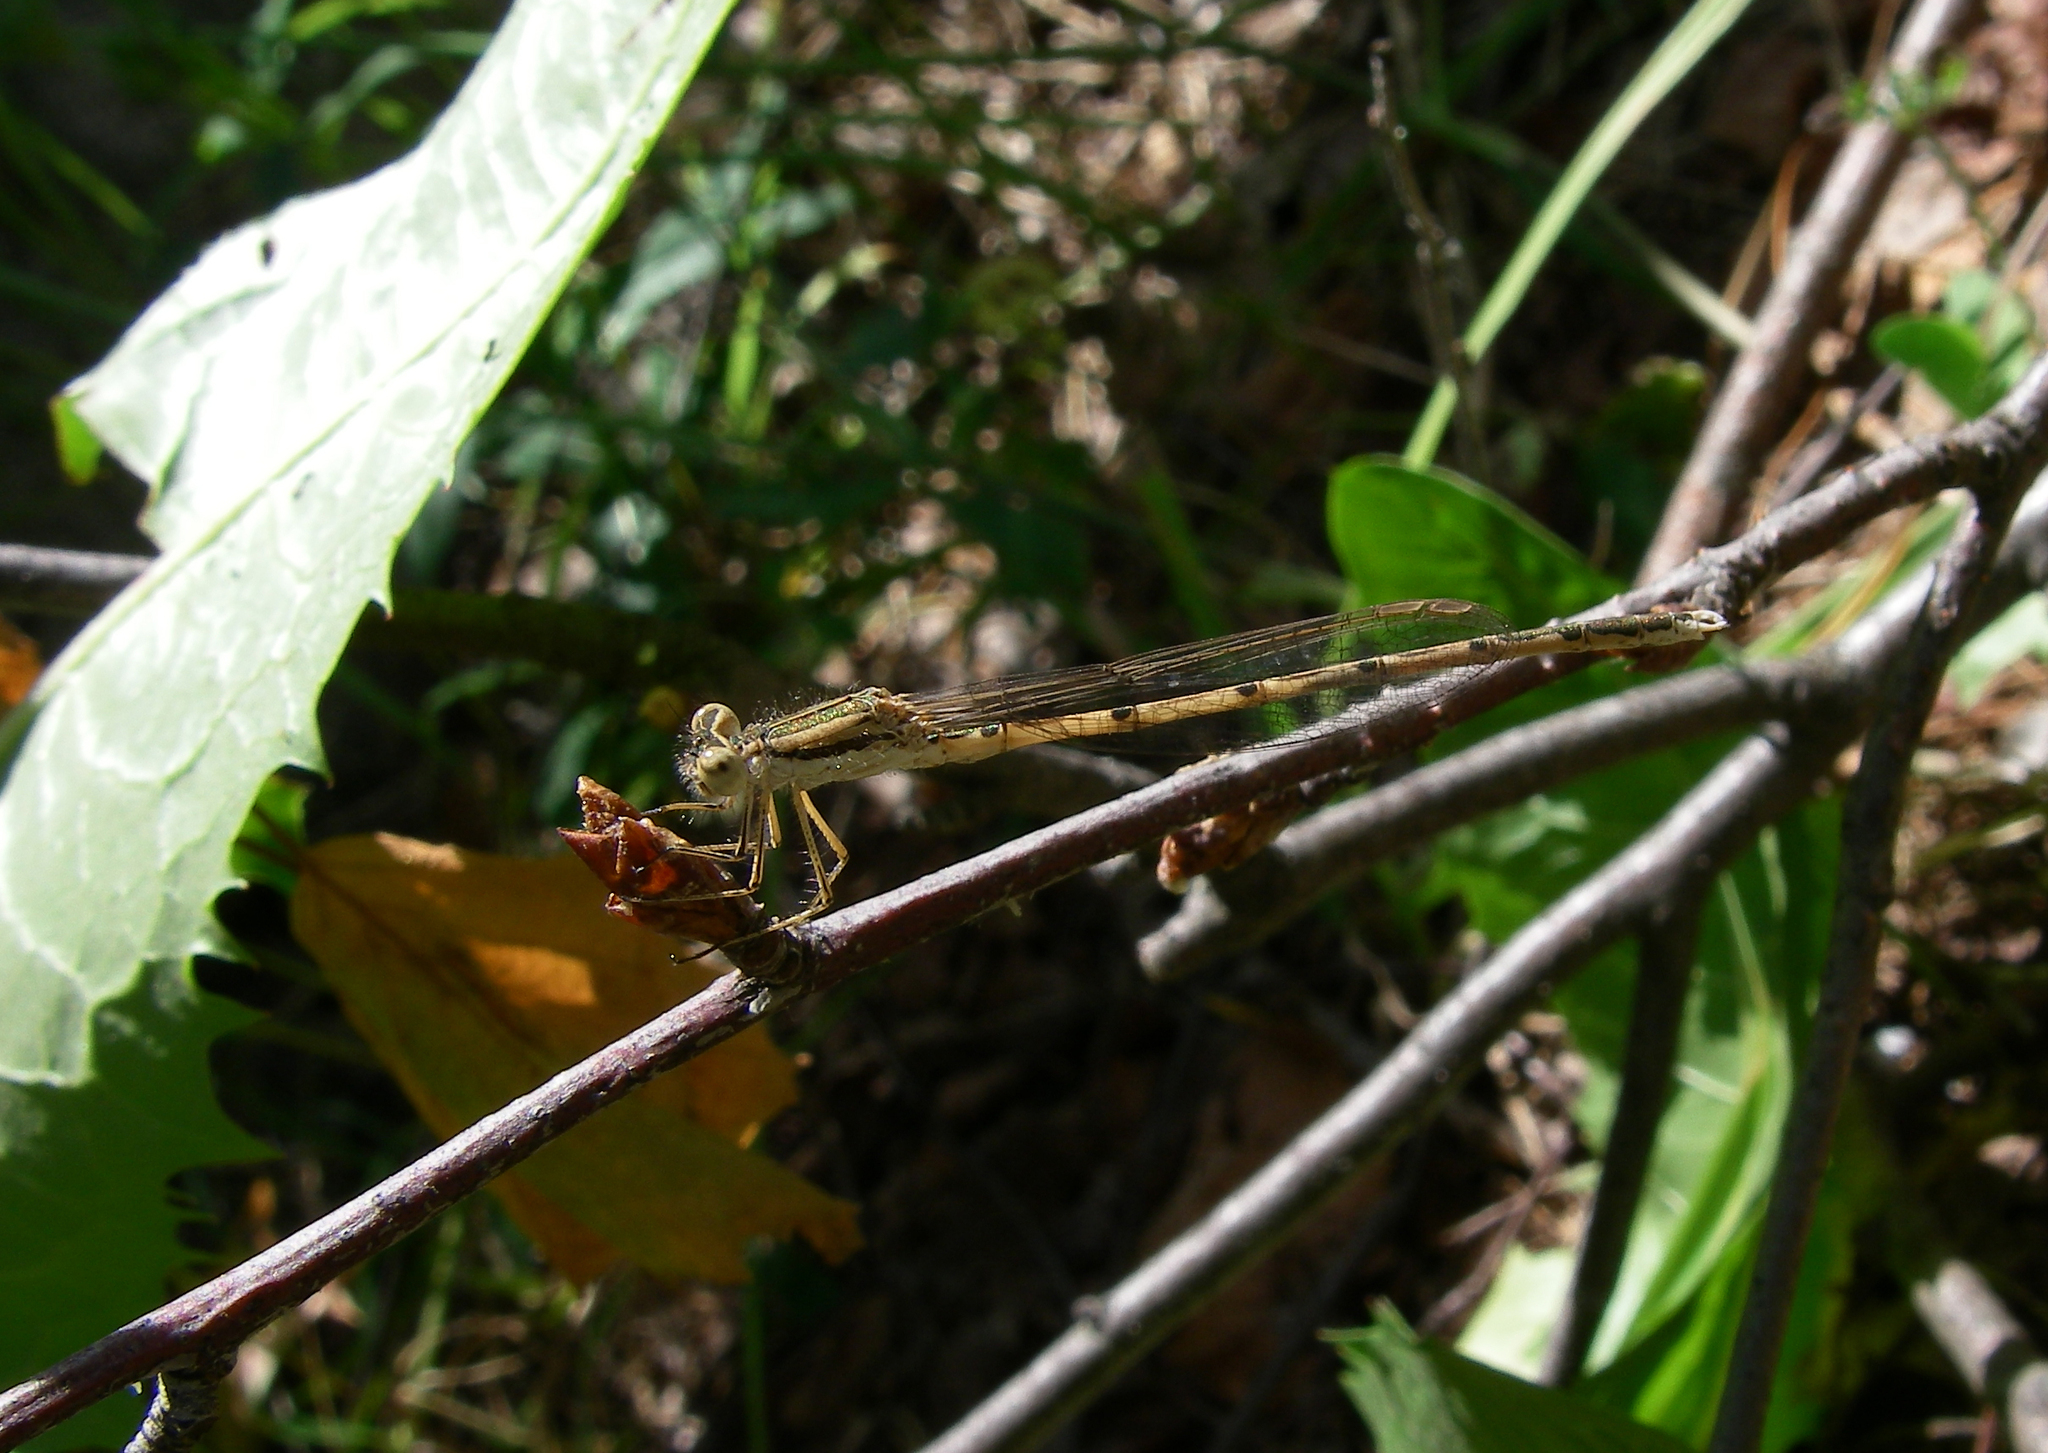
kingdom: Animalia
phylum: Arthropoda
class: Insecta
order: Odonata
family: Lestidae
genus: Sympecma
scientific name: Sympecma fusca
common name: Common winter damsel
